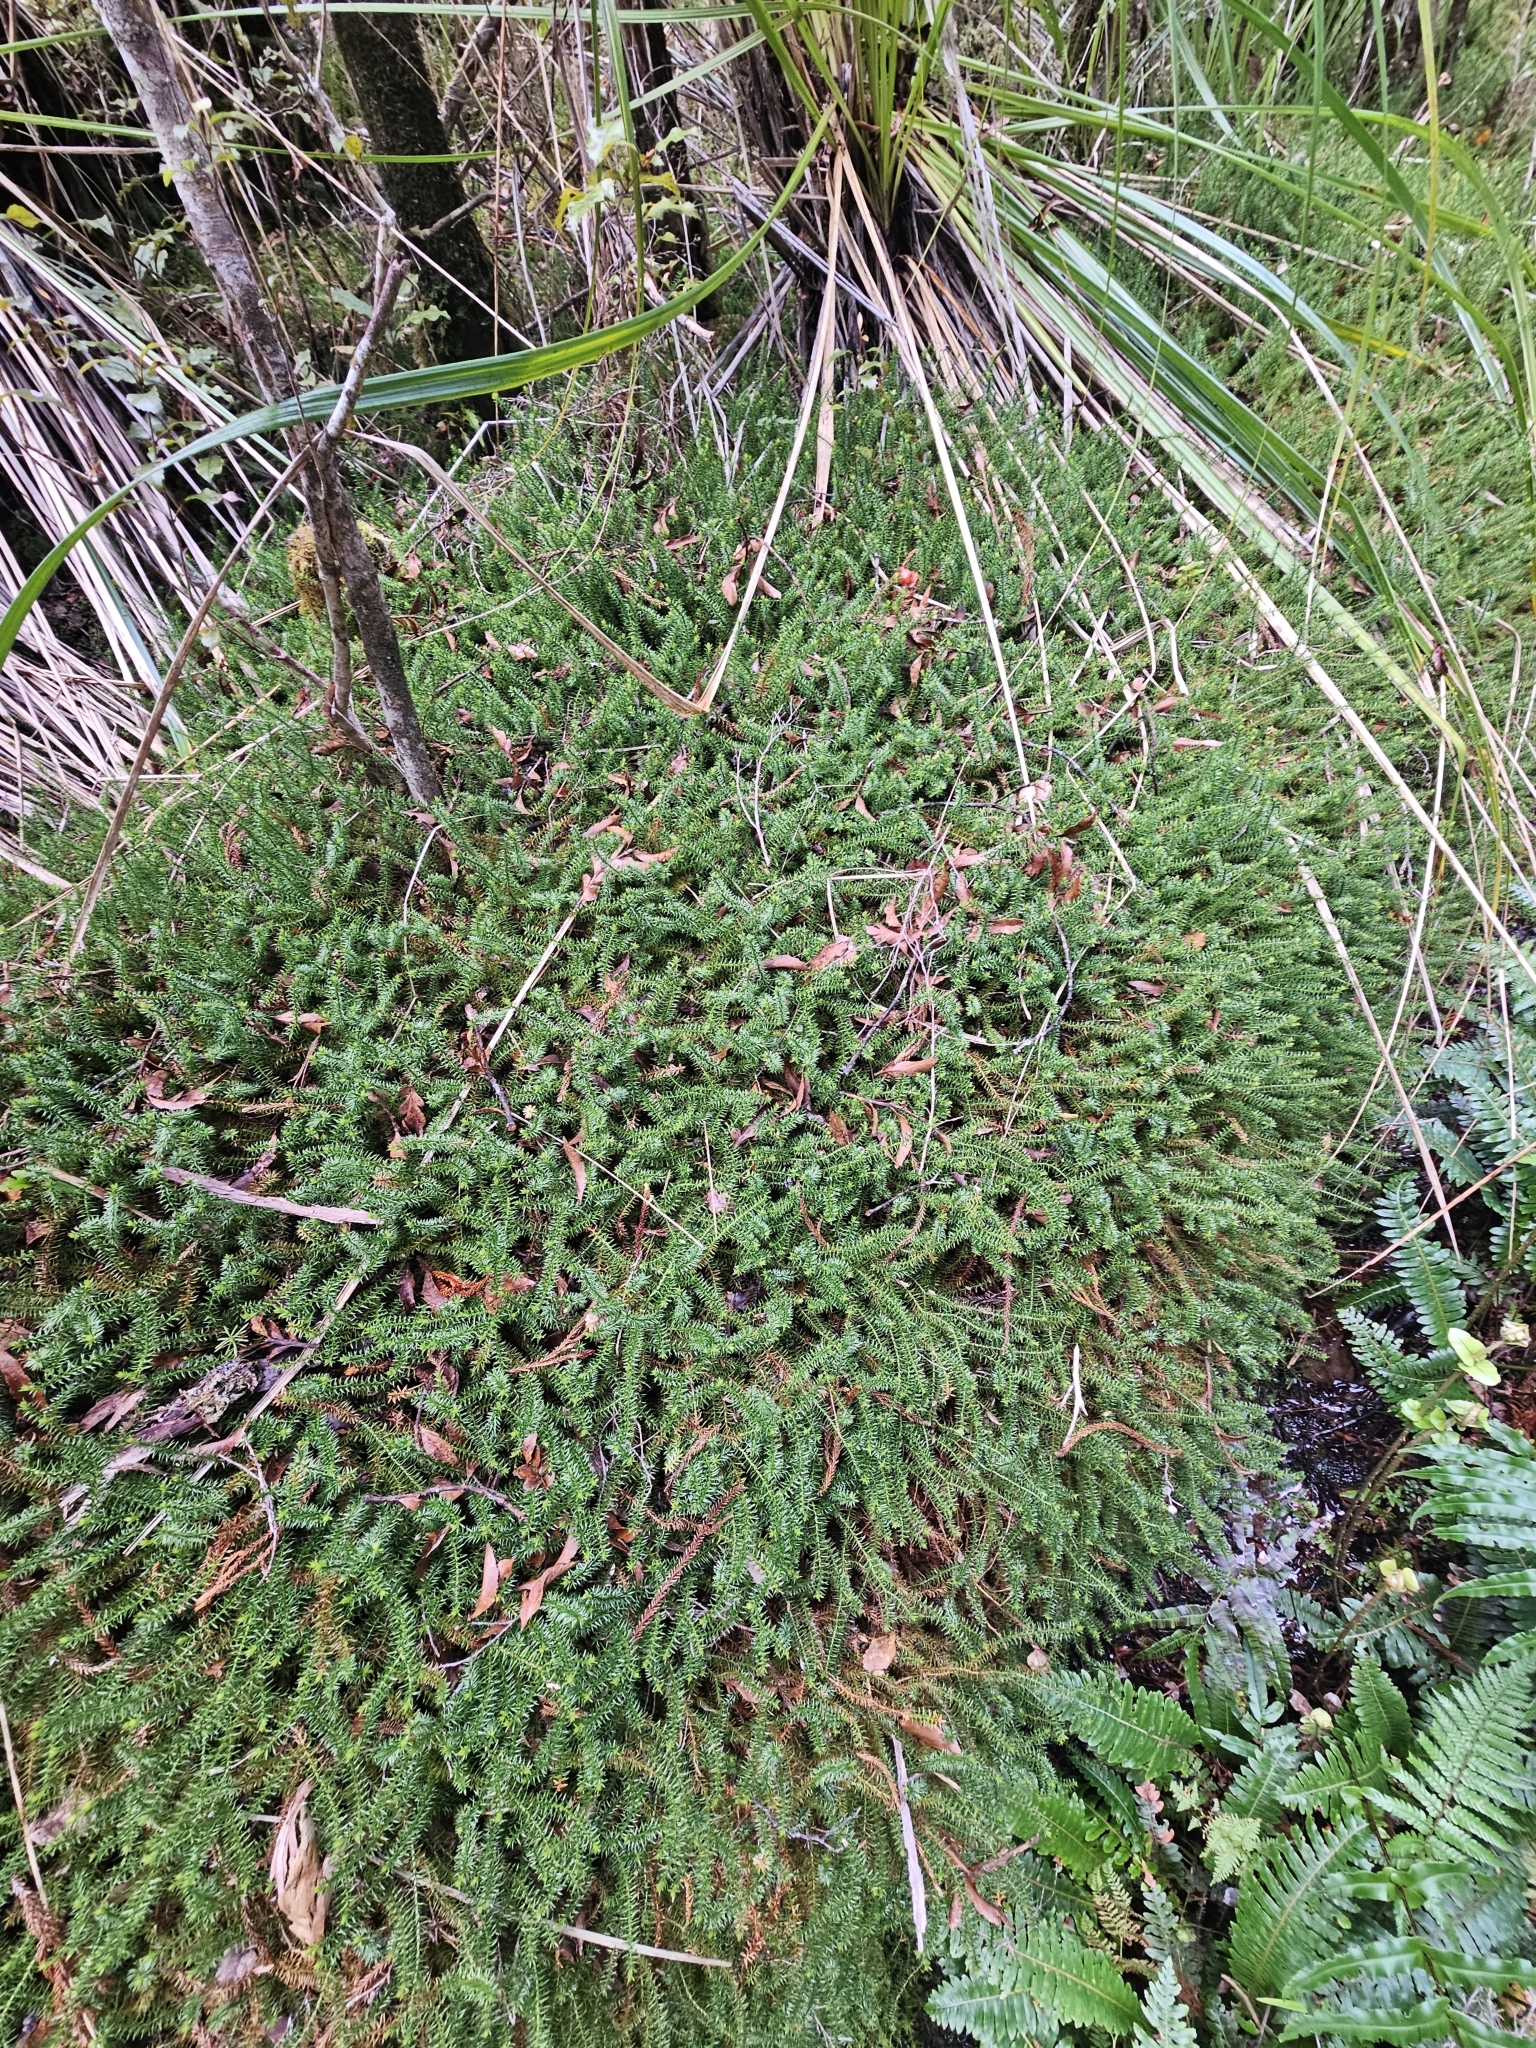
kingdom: Plantae
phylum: Tracheophyta
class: Lycopodiopsida
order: Lycopodiales
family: Lycopodiaceae
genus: Lateristachys
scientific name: Lateristachys lateralis
